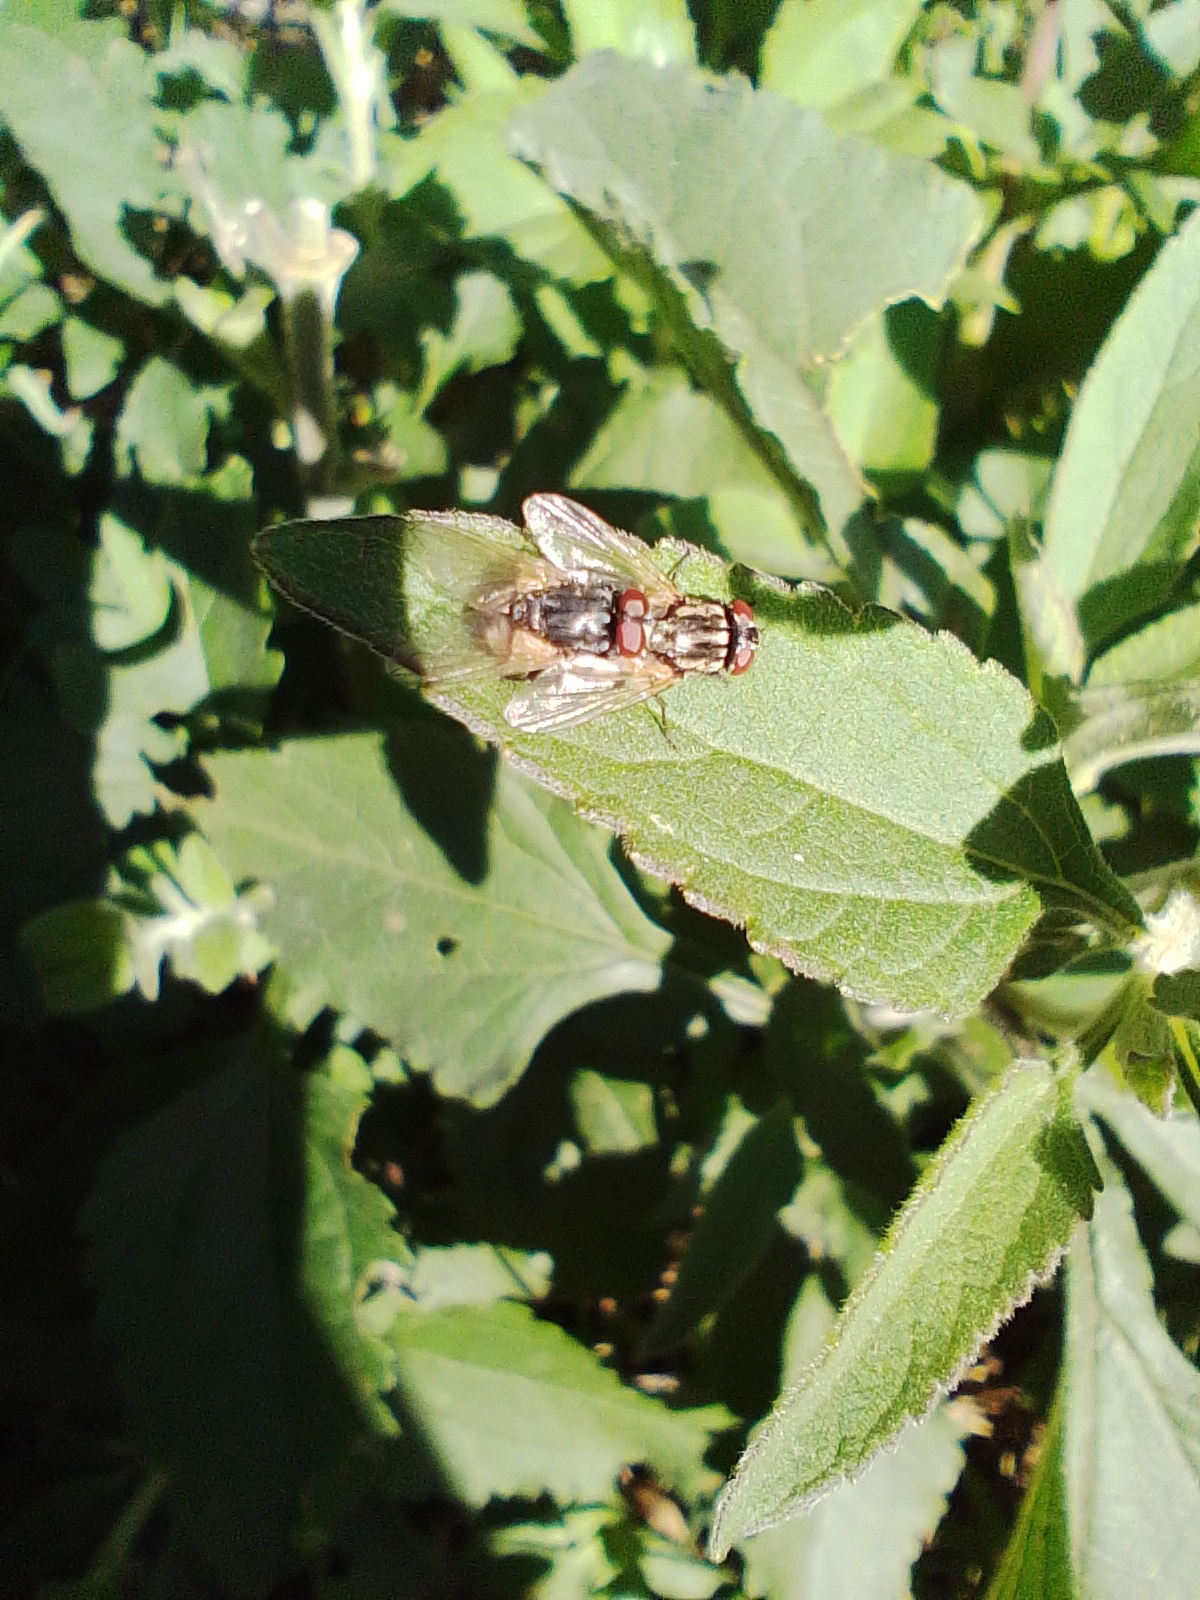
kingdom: Animalia
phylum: Arthropoda
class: Insecta
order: Diptera
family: Muscidae
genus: Musca
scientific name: Musca domestica
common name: House fly
